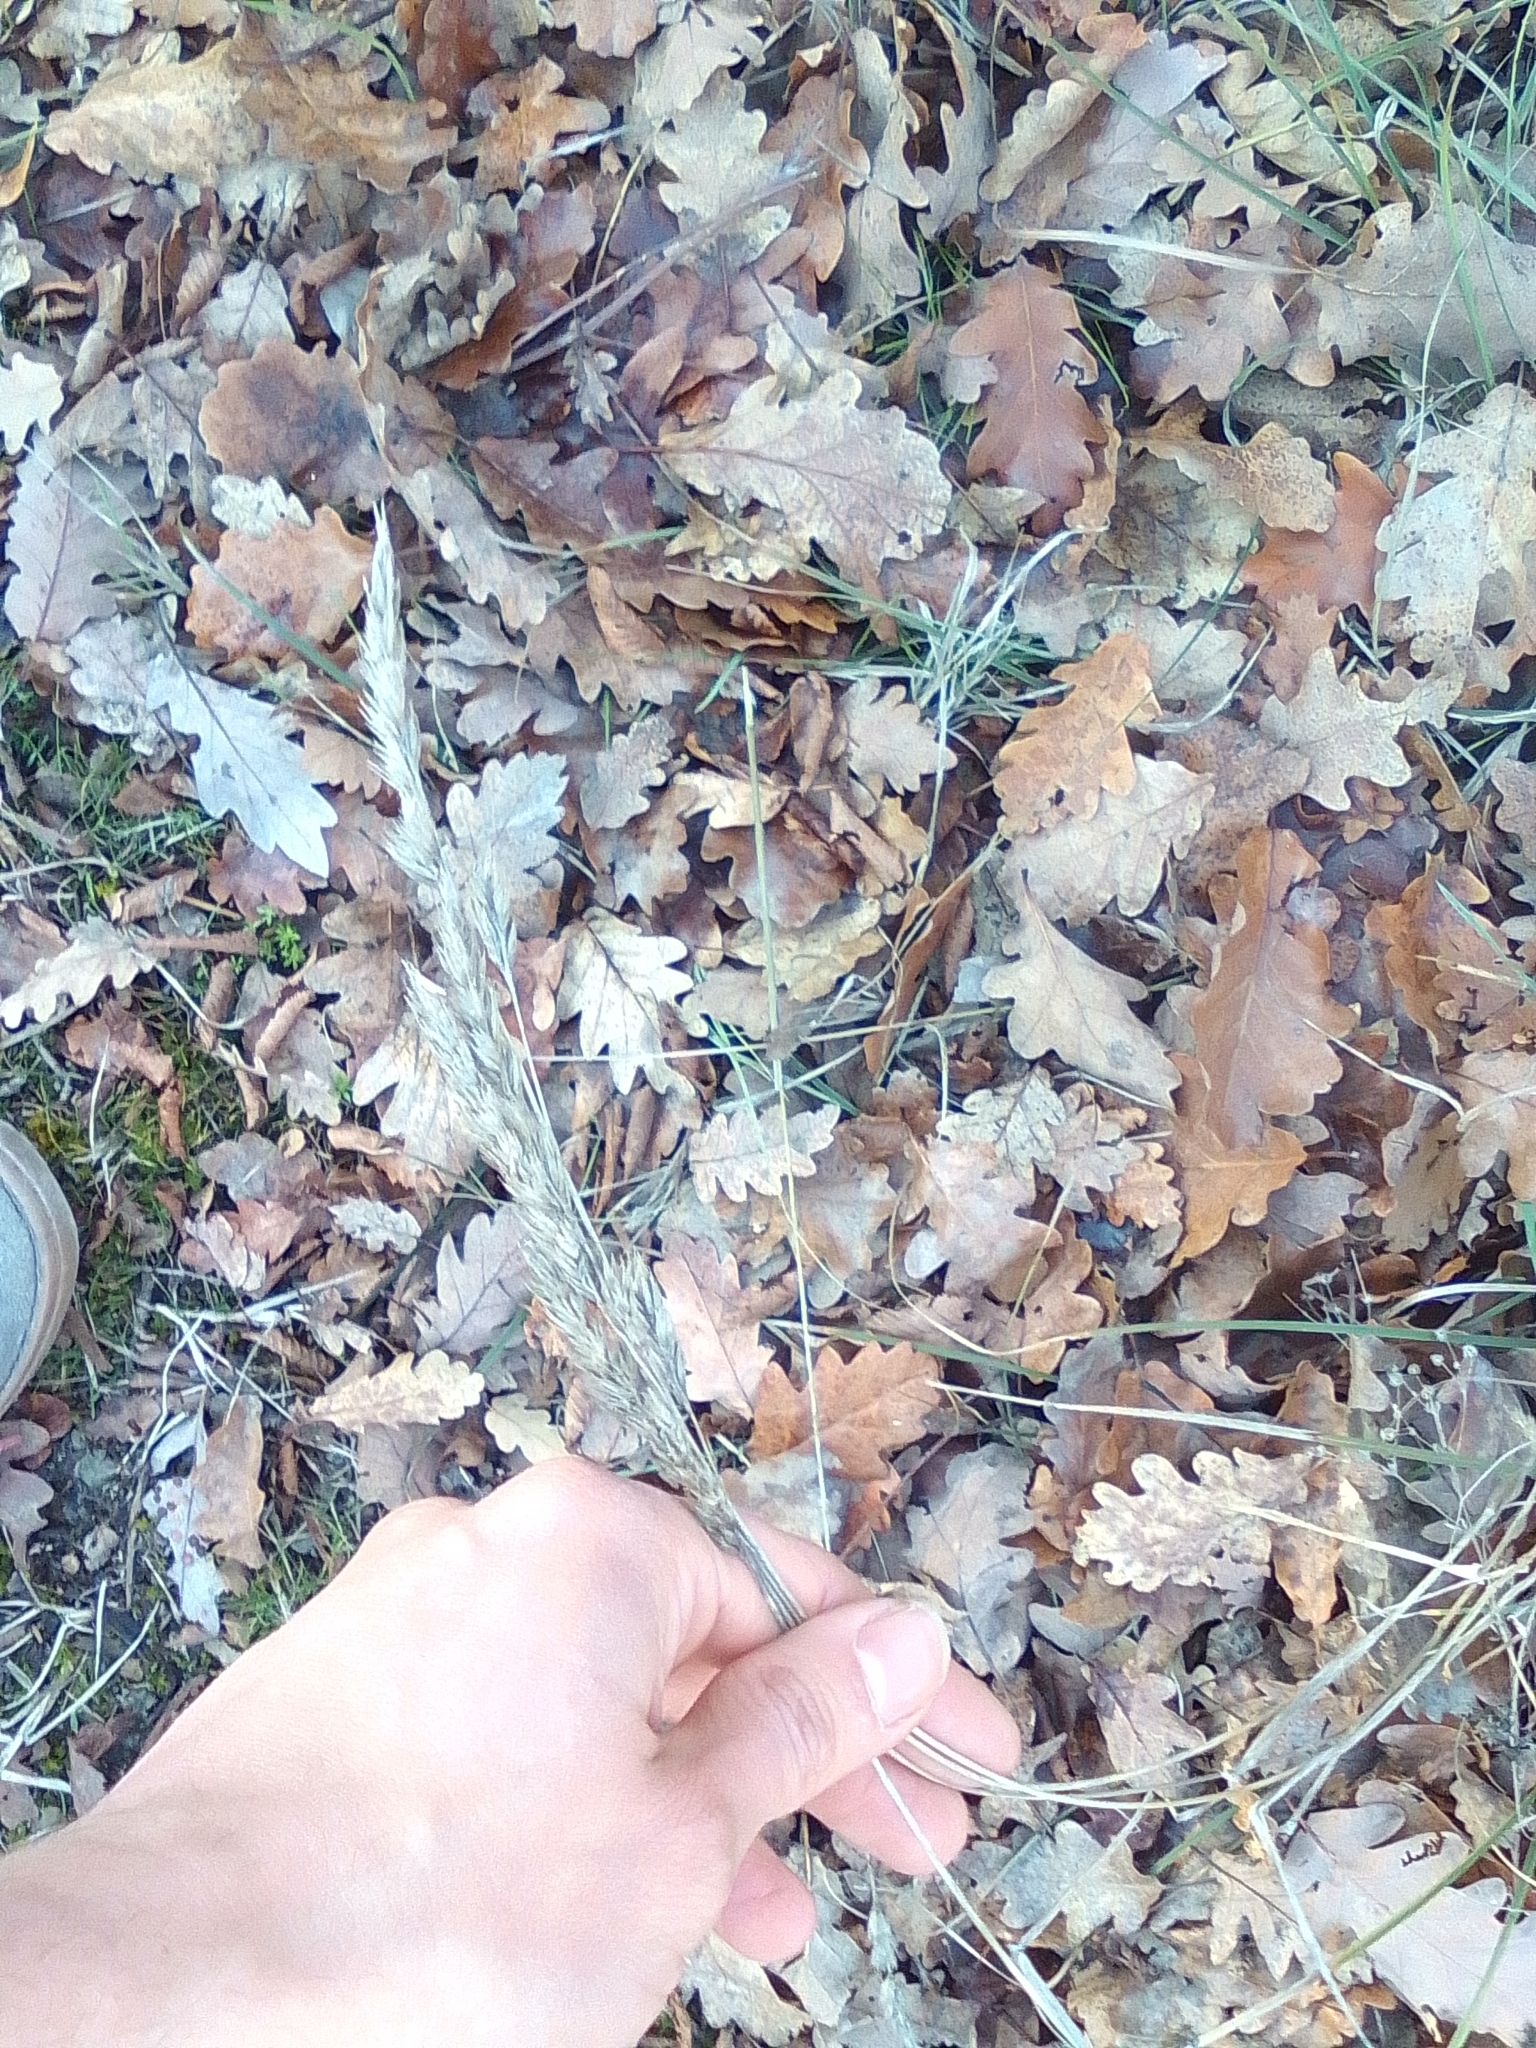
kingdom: Plantae
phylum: Tracheophyta
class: Liliopsida
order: Poales
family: Poaceae
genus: Dactylis
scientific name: Dactylis glomerata
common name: Orchardgrass
